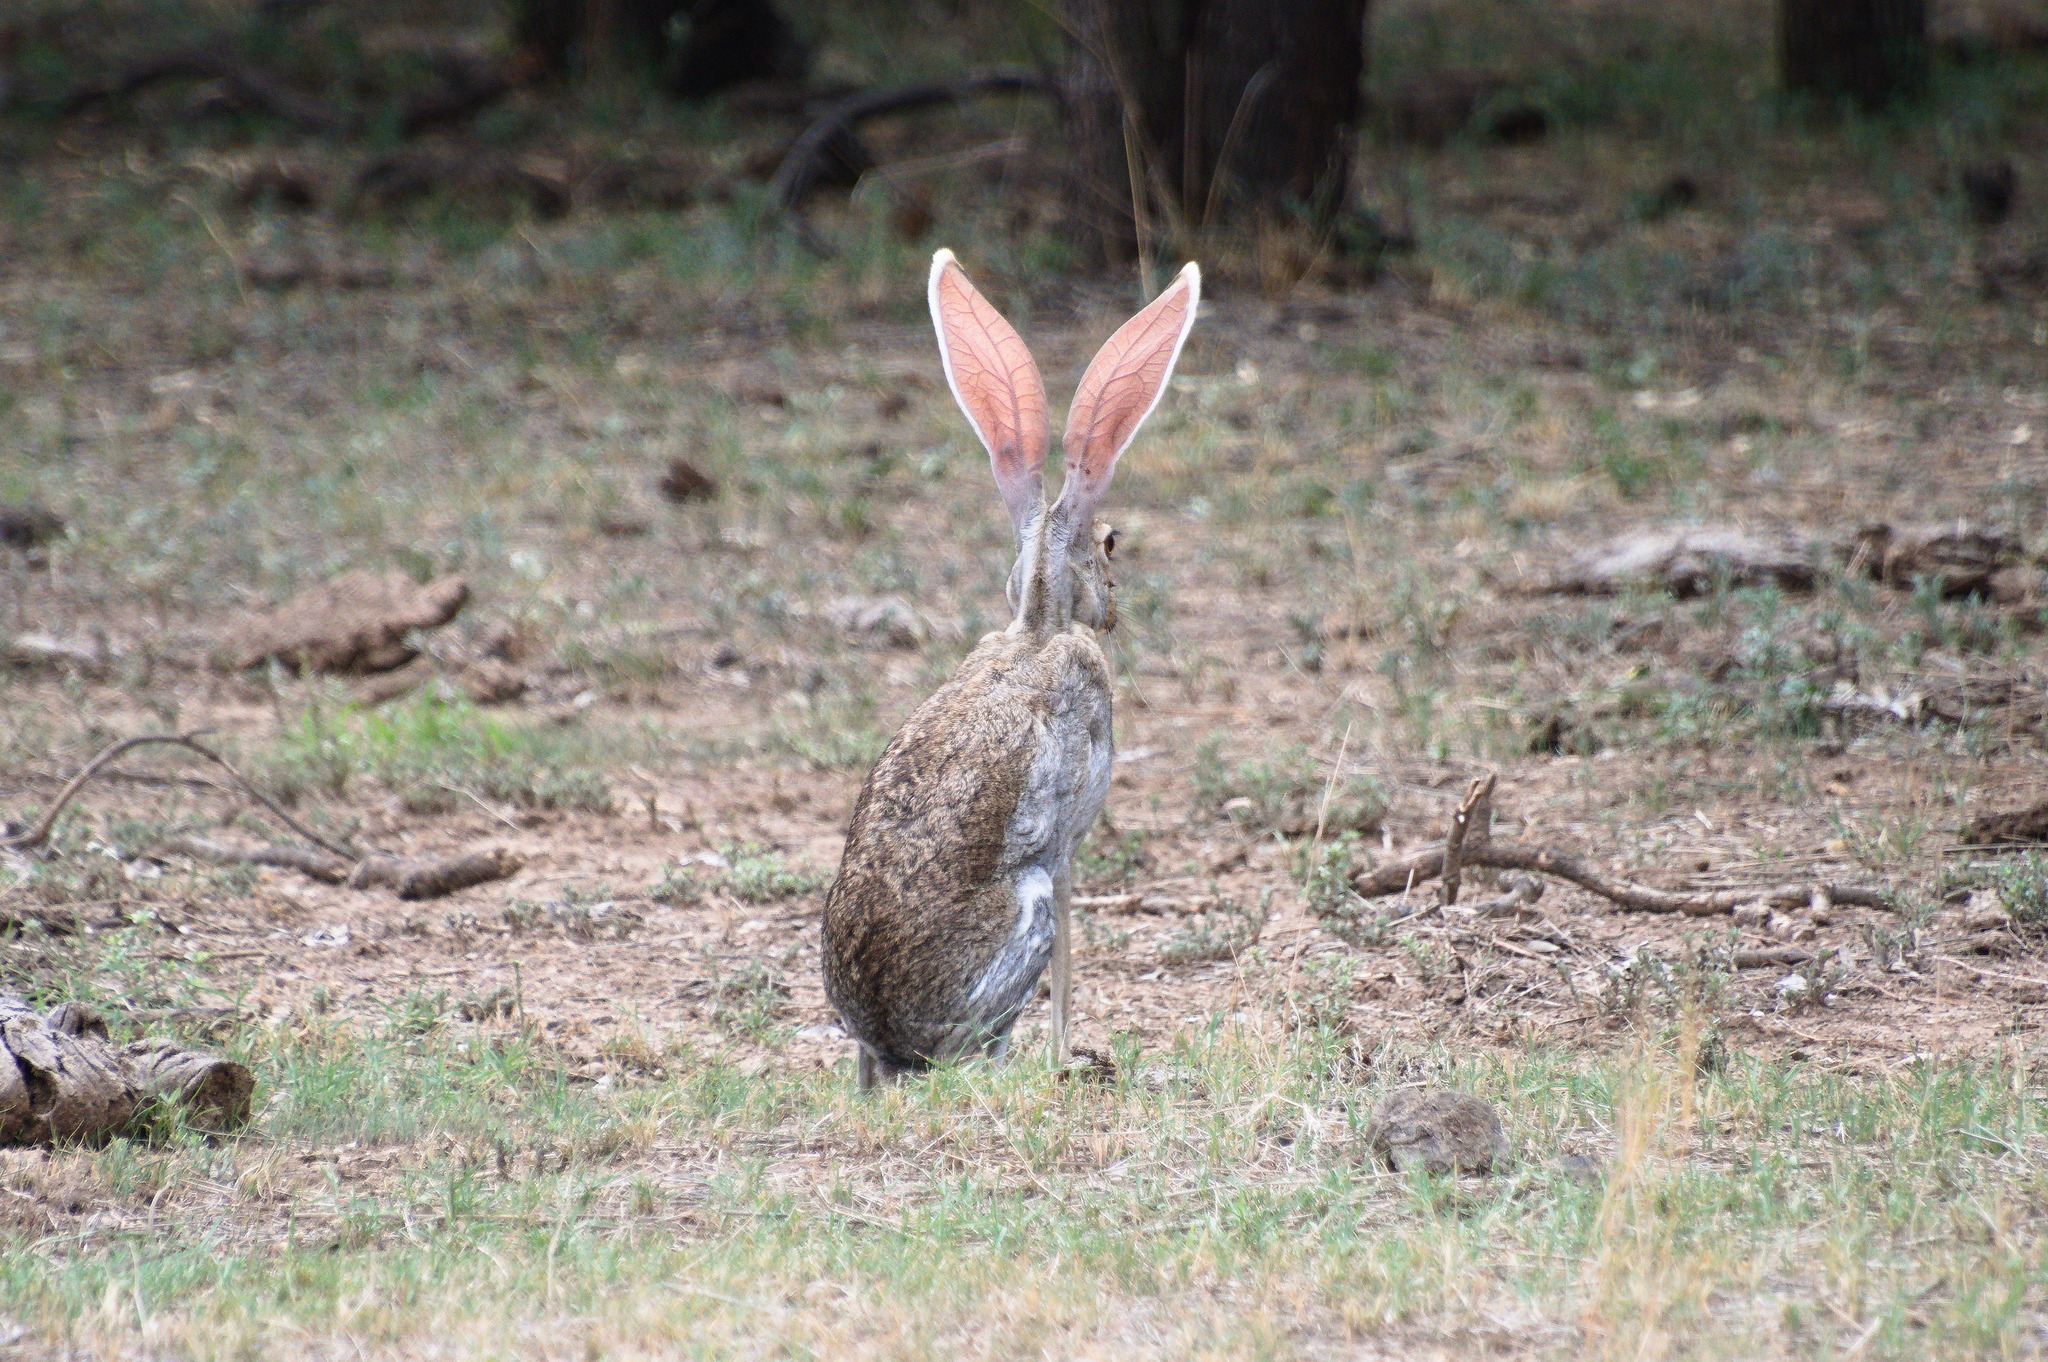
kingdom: Animalia
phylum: Chordata
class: Mammalia
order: Lagomorpha
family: Leporidae
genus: Lepus
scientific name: Lepus alleni
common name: Antelope jackrabbit
